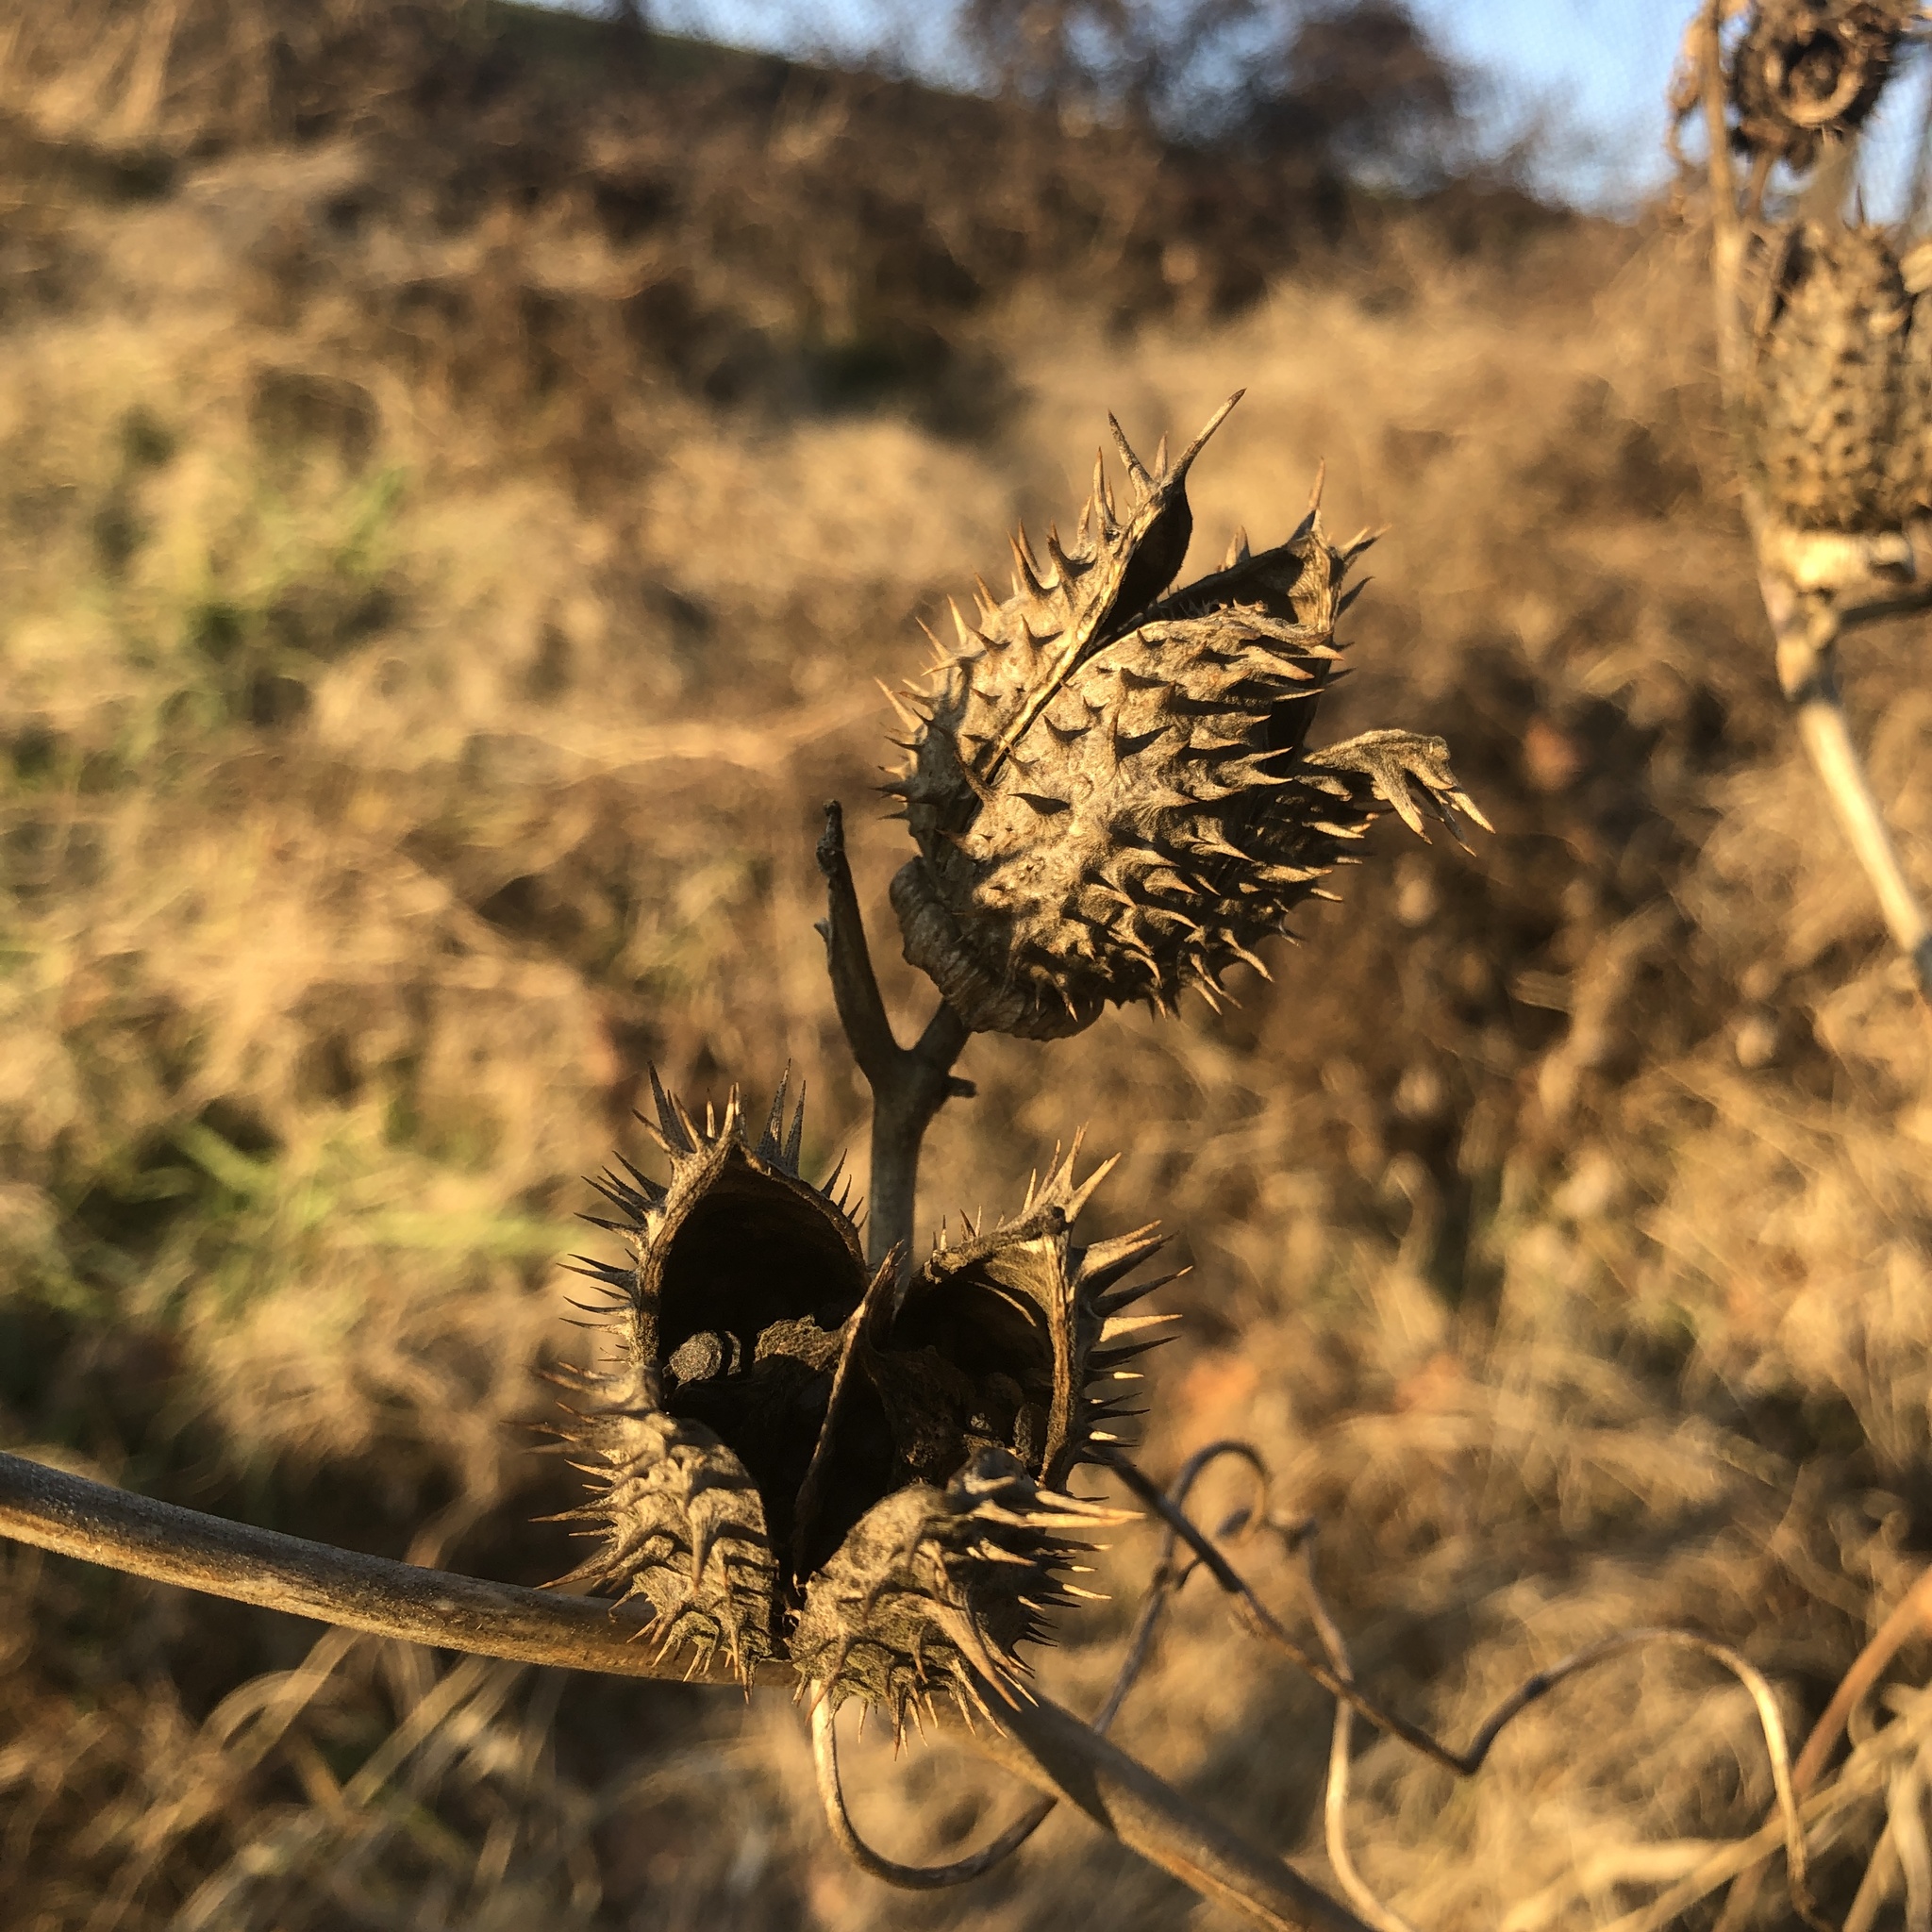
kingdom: Plantae
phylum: Tracheophyta
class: Magnoliopsida
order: Solanales
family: Solanaceae
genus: Datura
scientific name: Datura stramonium
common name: Thorn-apple
